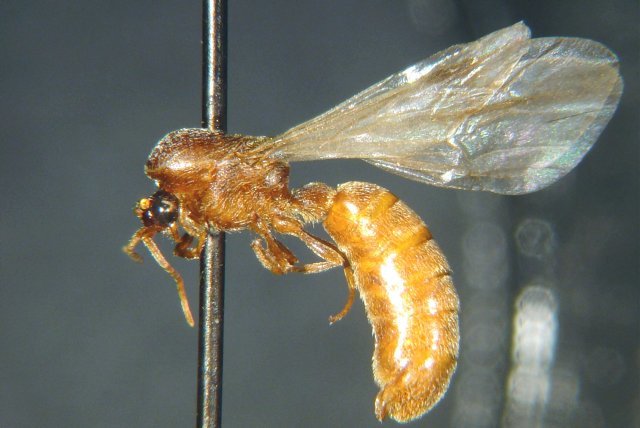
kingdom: Animalia
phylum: Arthropoda
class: Insecta
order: Hymenoptera
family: Formicidae
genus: Neivamyrmex
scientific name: Neivamyrmex minor
